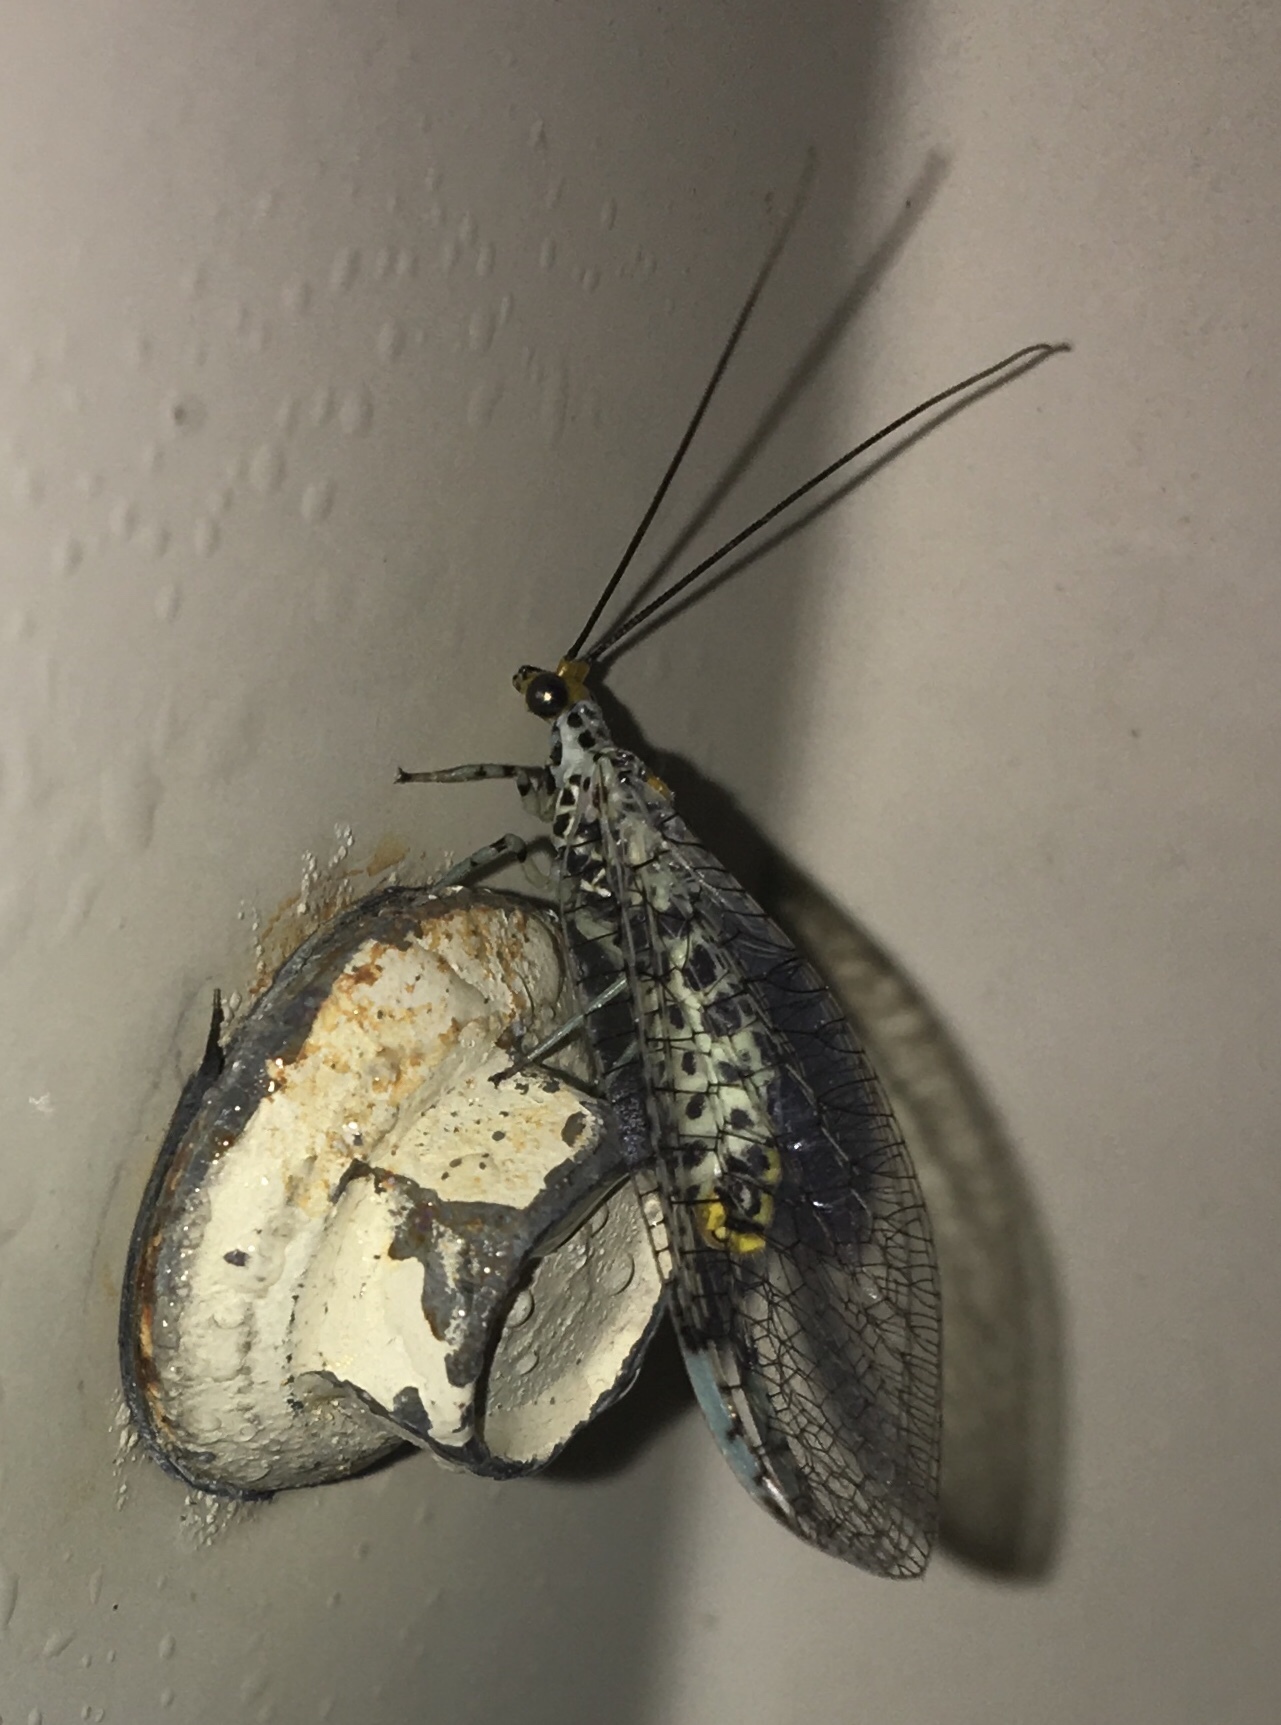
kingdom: Animalia
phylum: Arthropoda
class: Insecta
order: Neuroptera
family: Chrysopidae
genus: Abachrysa
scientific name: Abachrysa eureka
